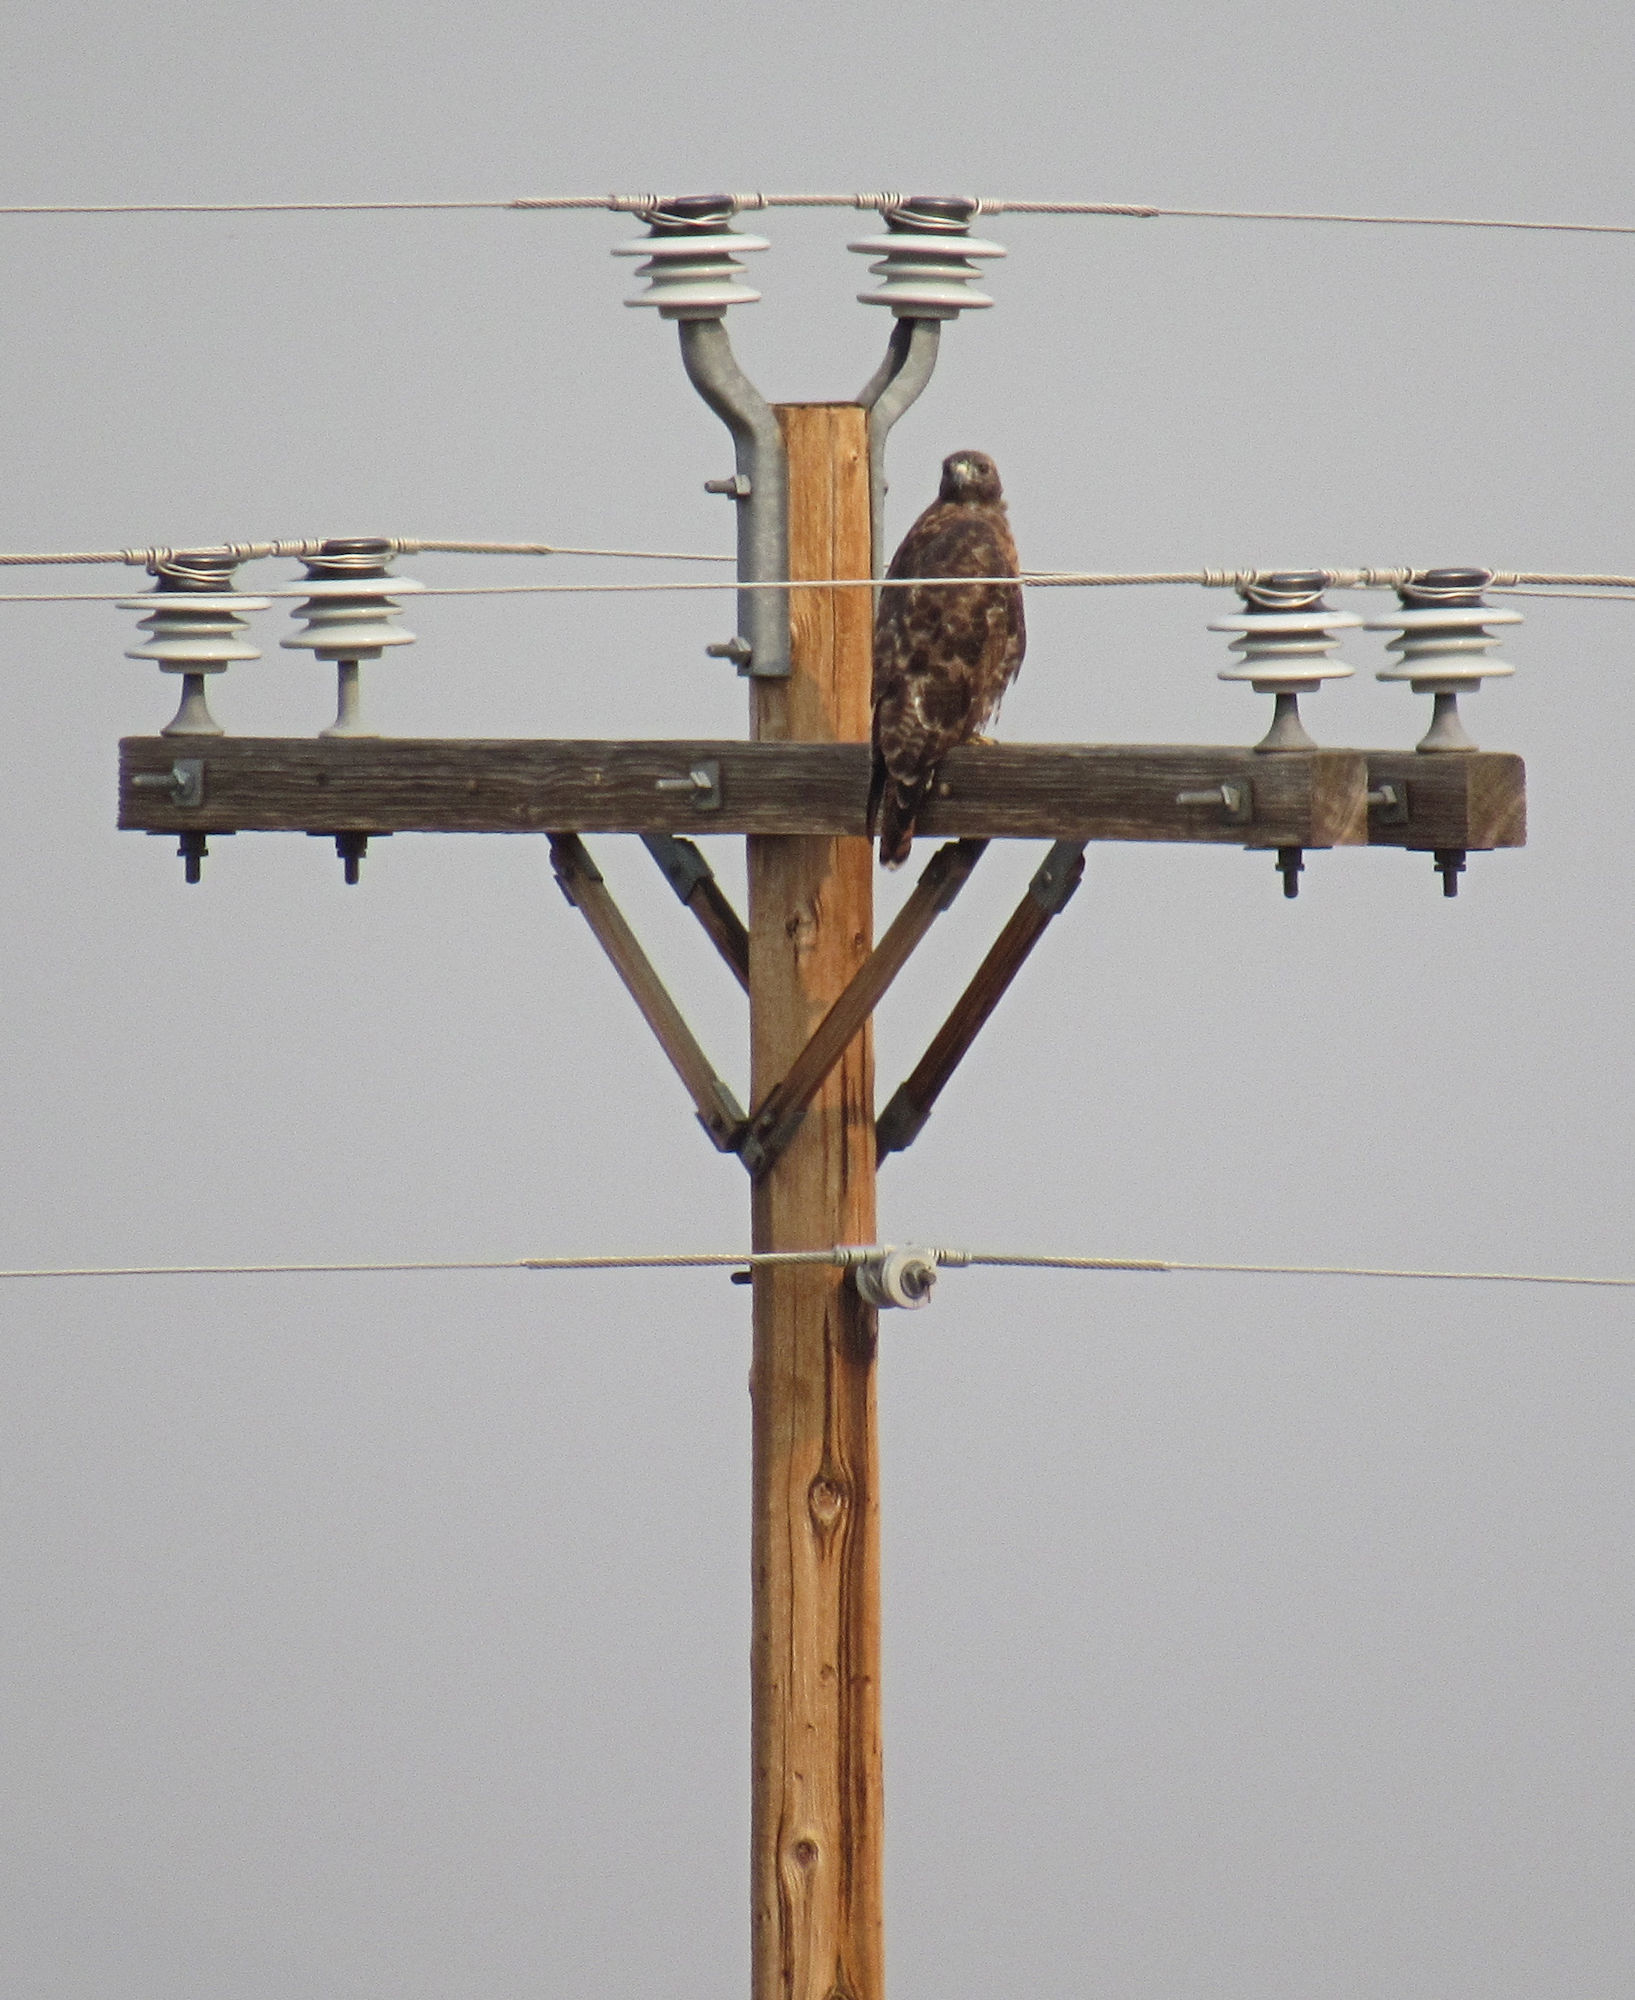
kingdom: Animalia
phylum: Chordata
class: Aves
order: Accipitriformes
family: Accipitridae
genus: Buteo
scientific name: Buteo jamaicensis
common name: Red-tailed hawk
